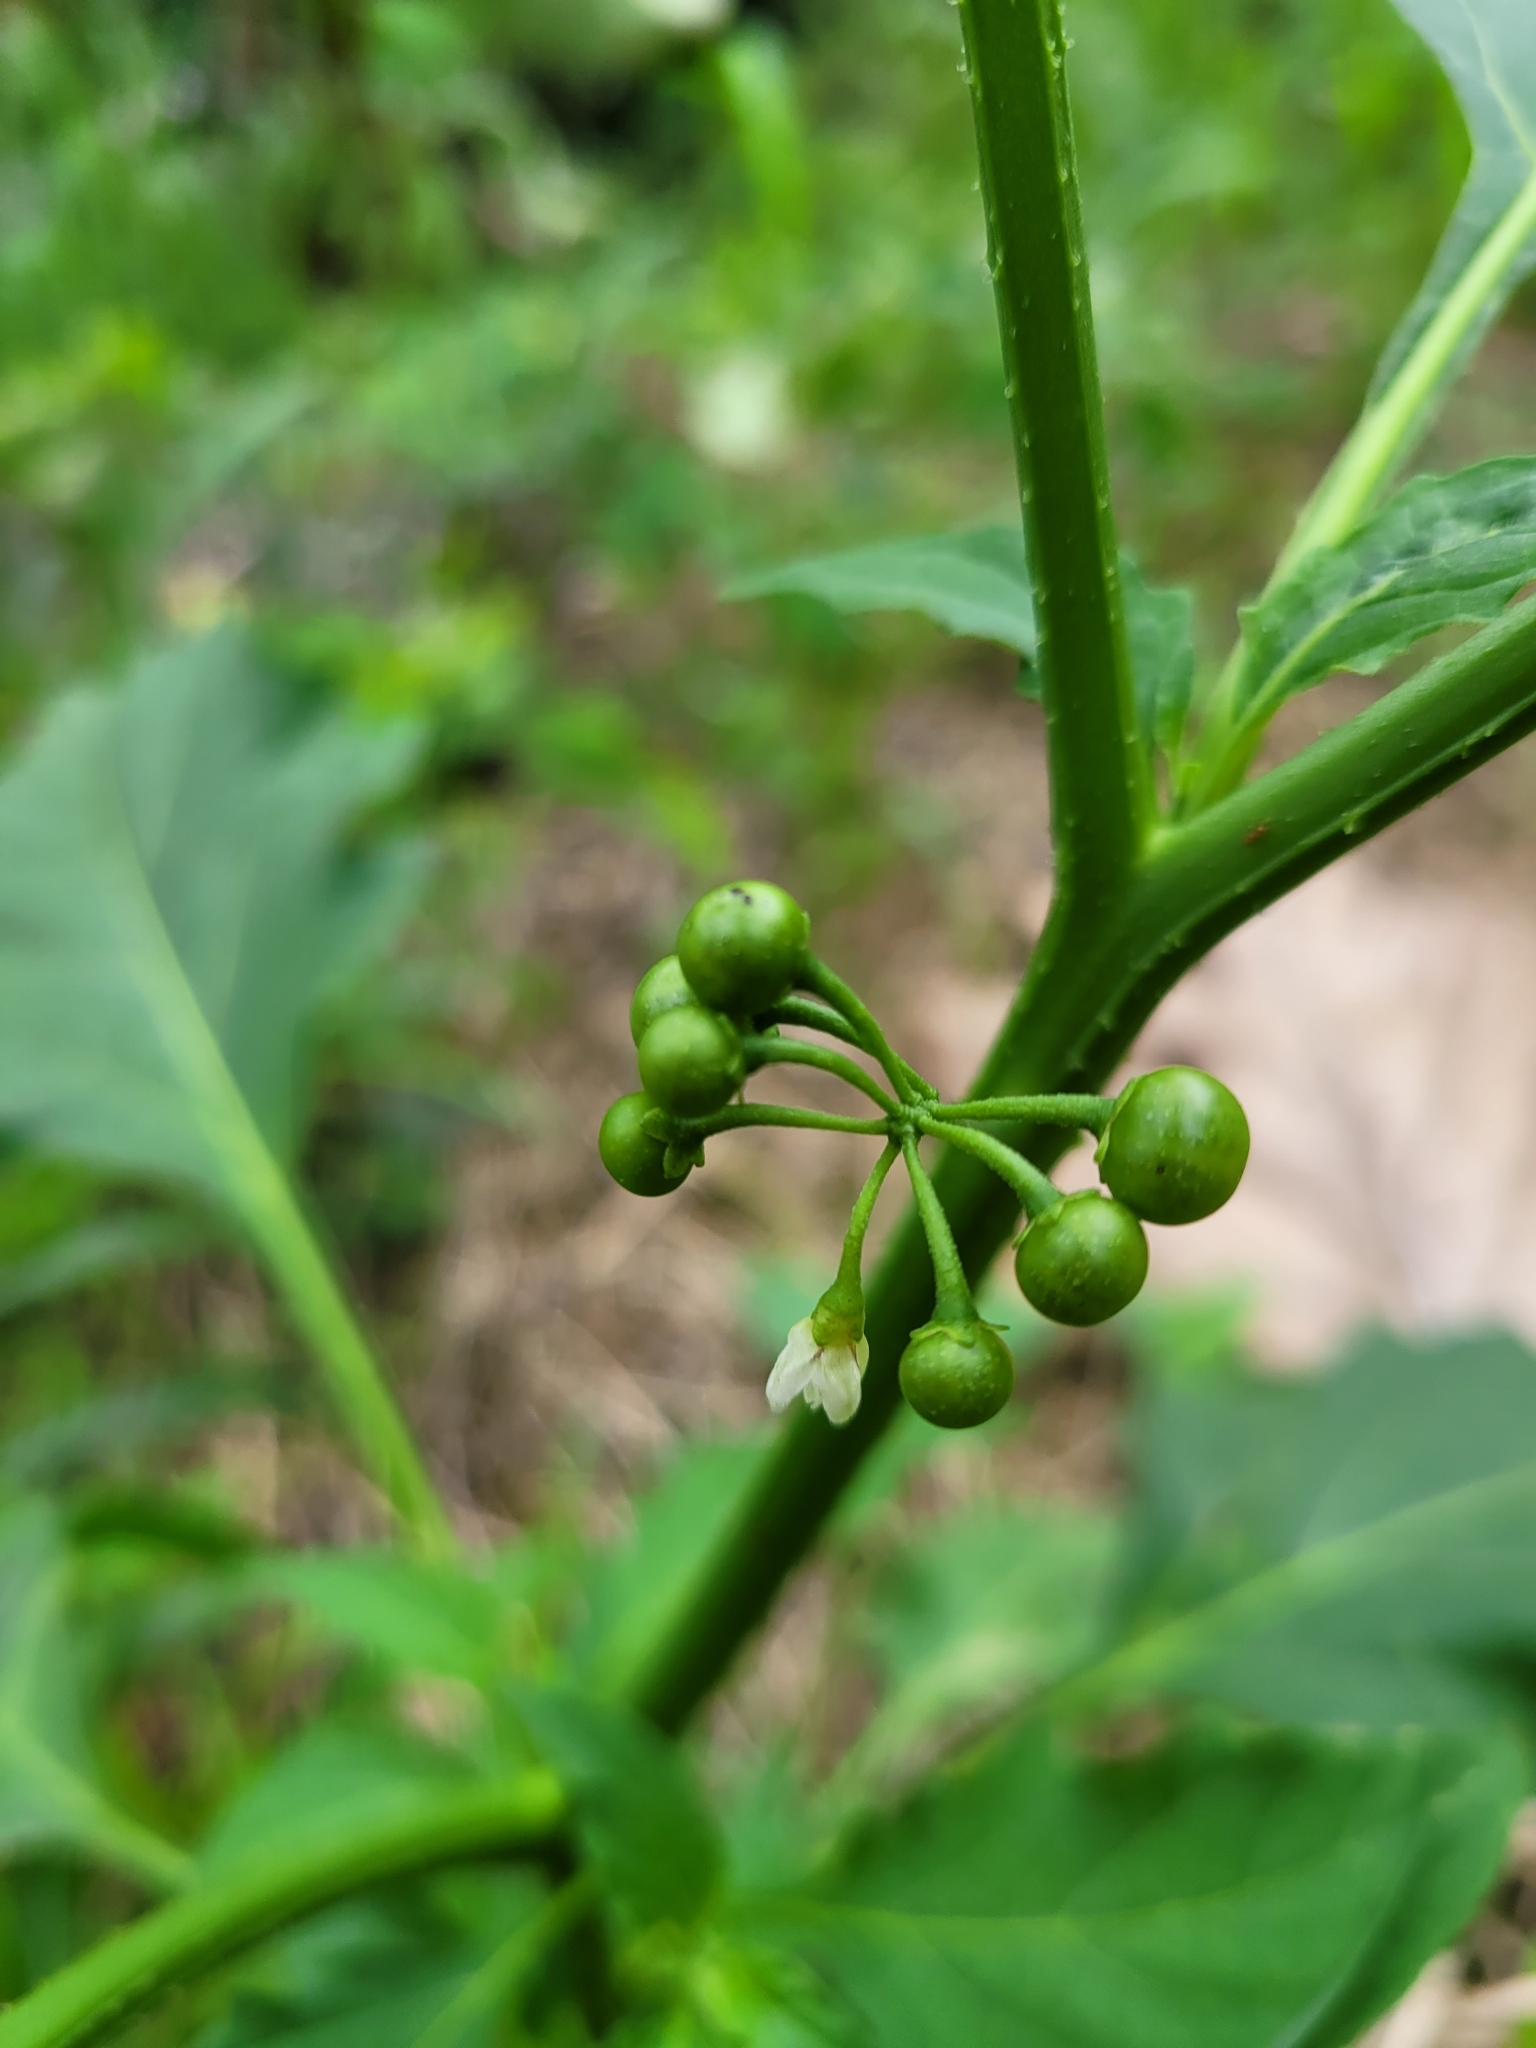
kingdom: Plantae
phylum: Tracheophyta
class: Magnoliopsida
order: Solanales
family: Solanaceae
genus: Solanum
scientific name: Solanum americanum
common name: American black nightshade
